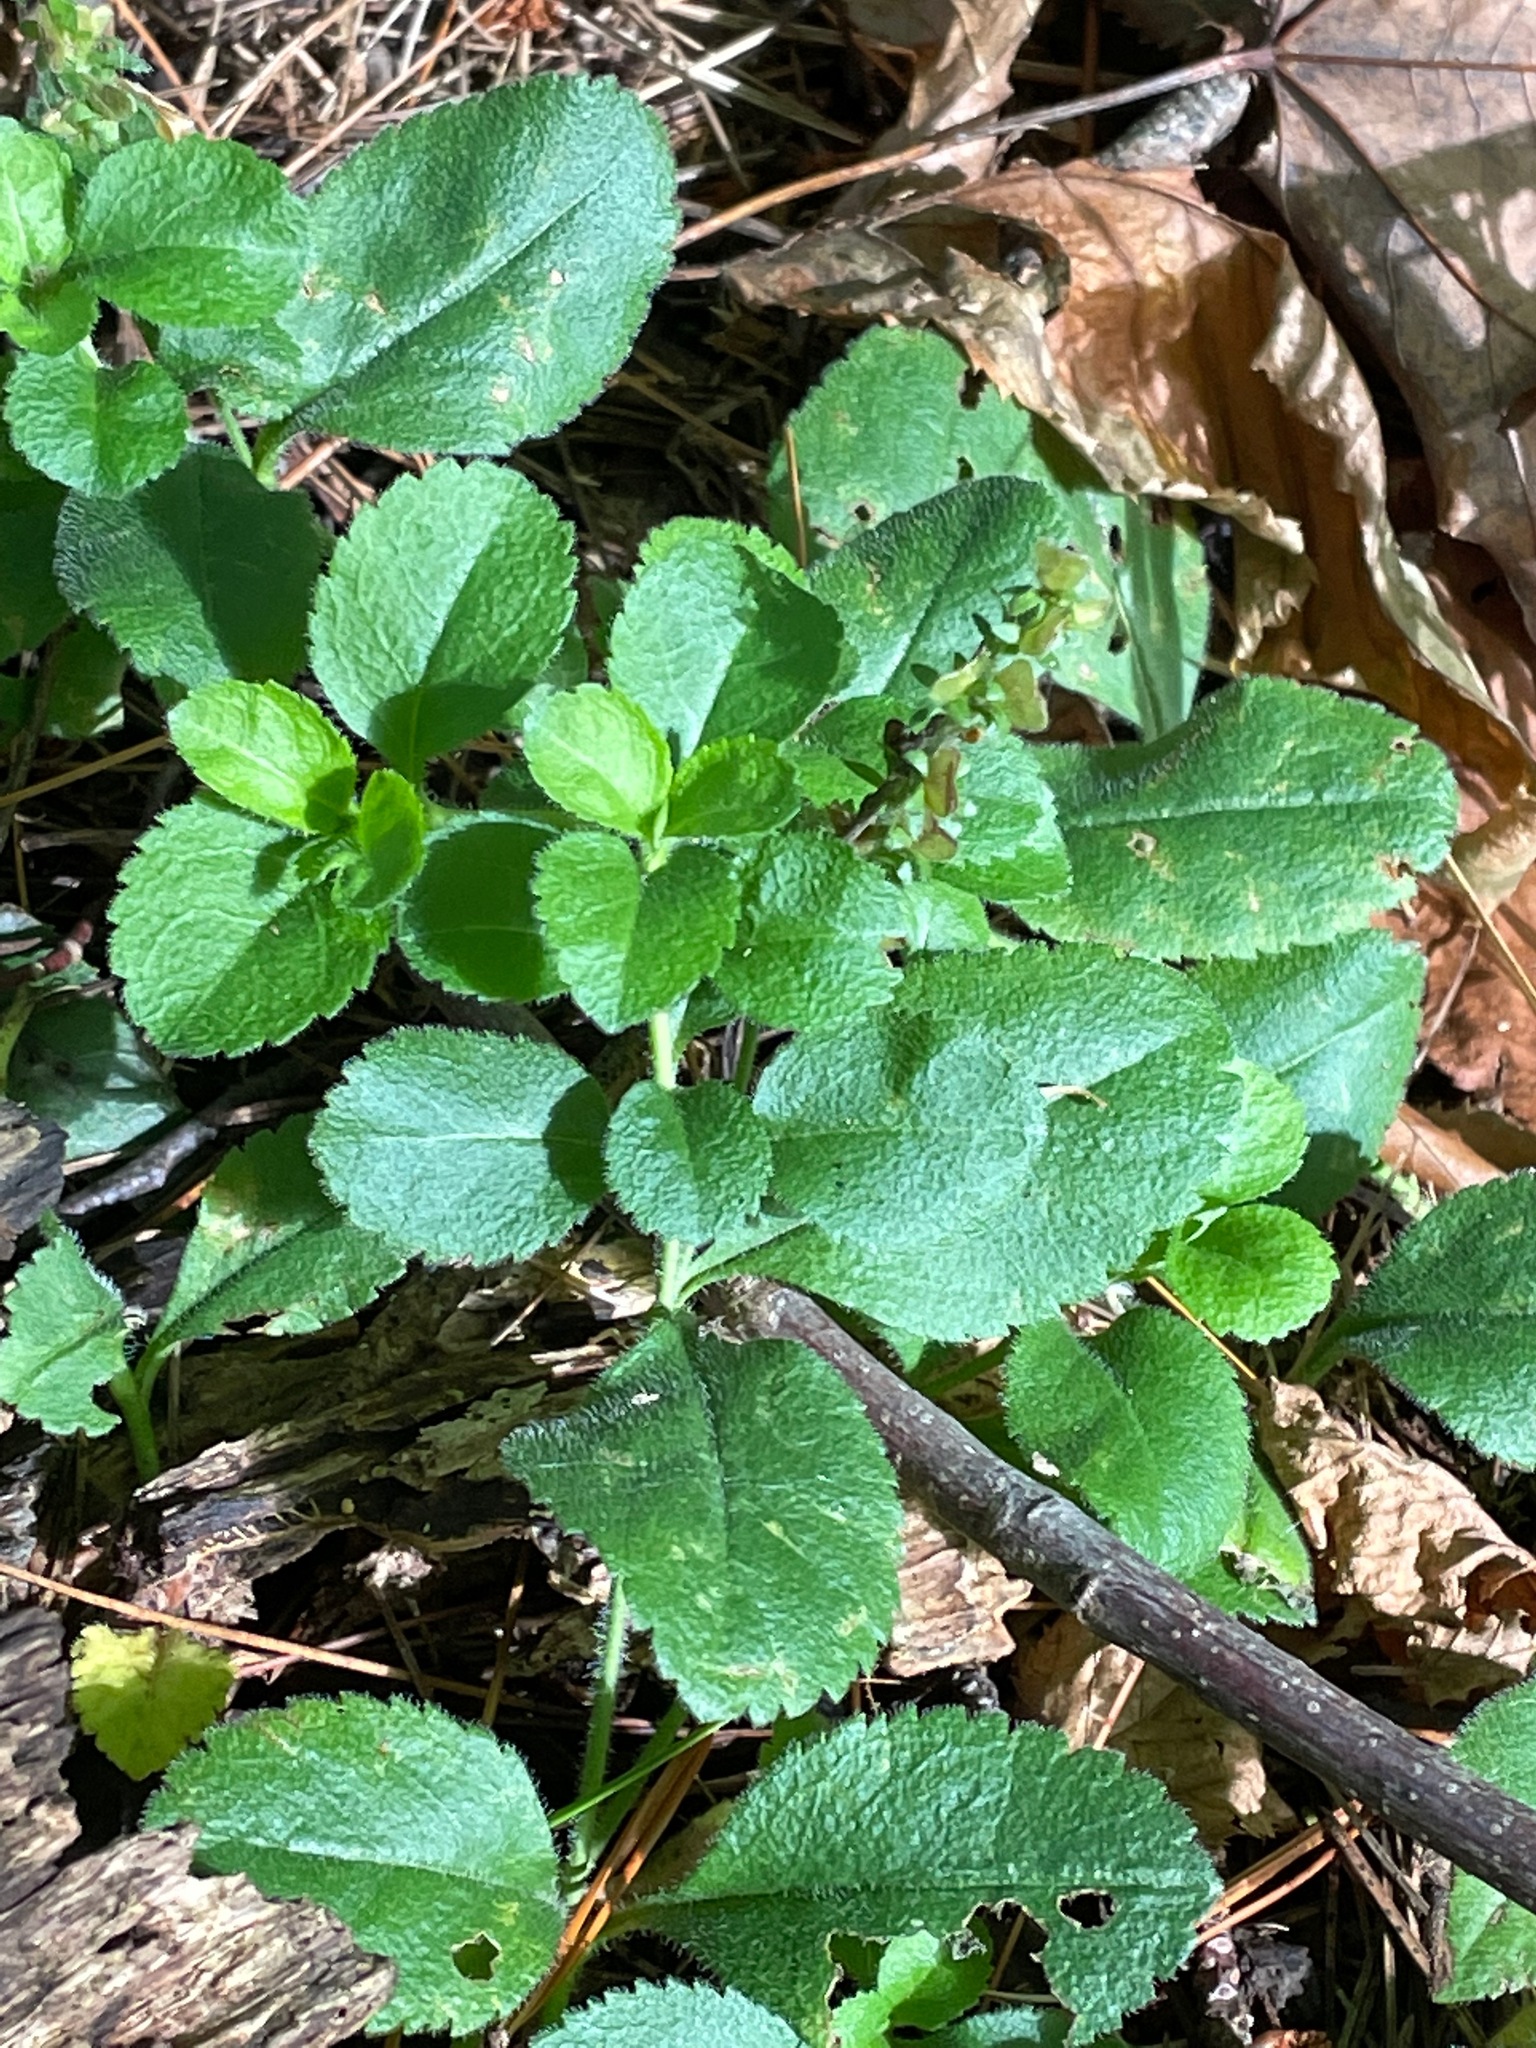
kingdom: Plantae
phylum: Tracheophyta
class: Magnoliopsida
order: Lamiales
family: Plantaginaceae
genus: Veronica
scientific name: Veronica officinalis
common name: Common speedwell
